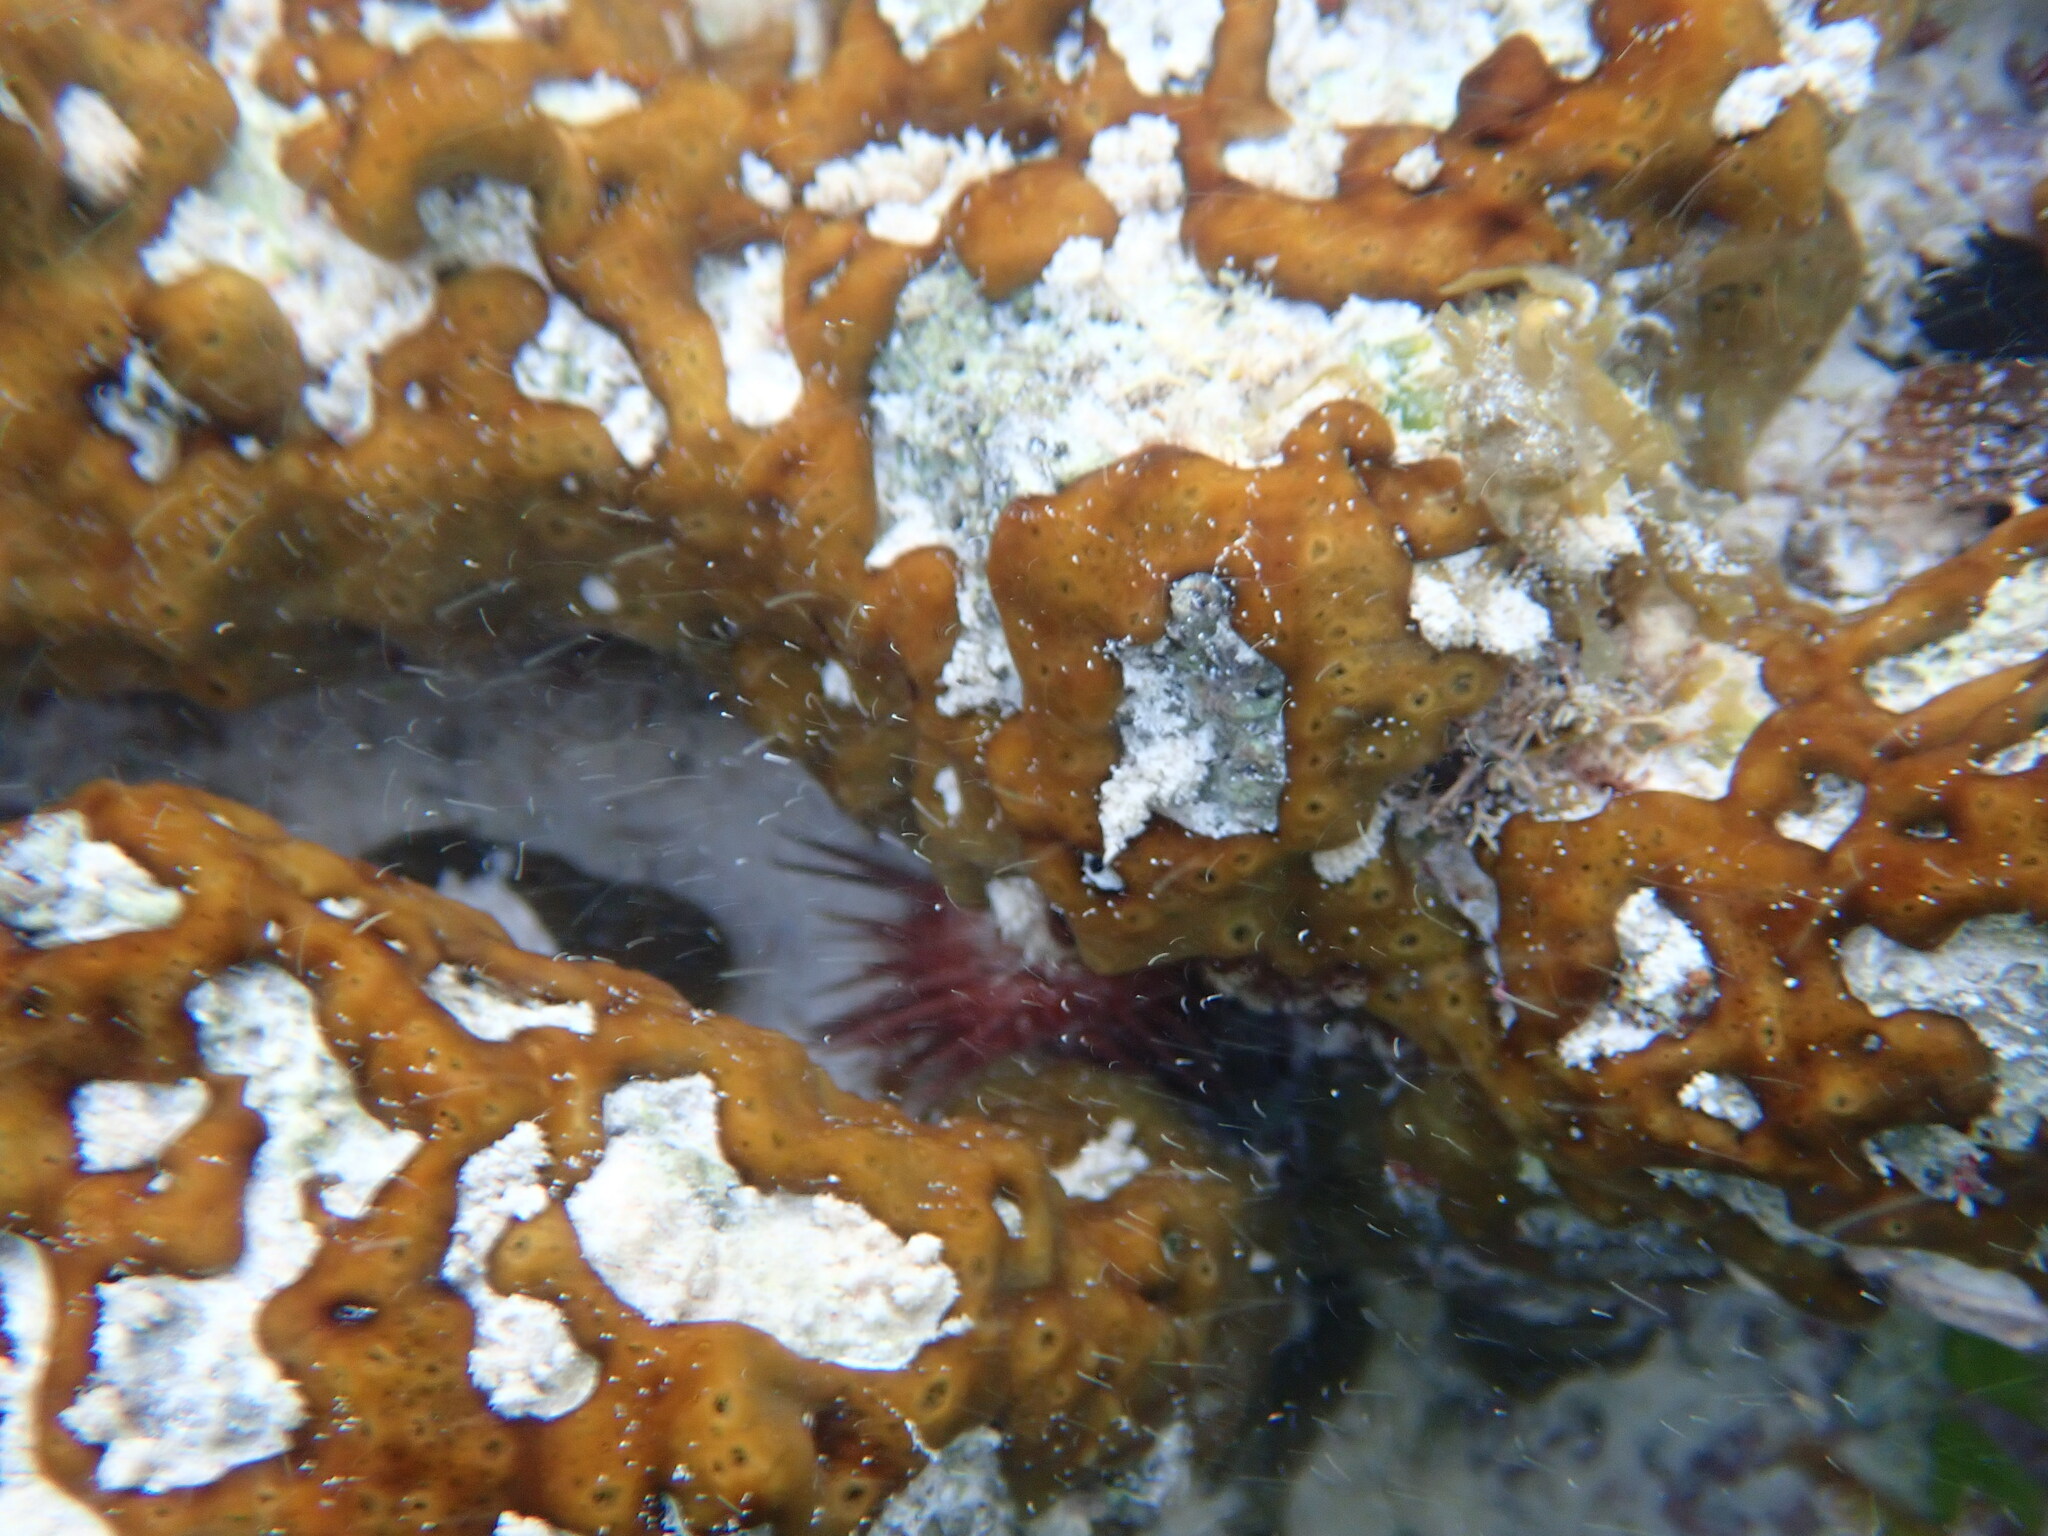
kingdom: Animalia
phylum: Porifera
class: Demospongiae
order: Chondrillida
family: Chondrillidae
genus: Chondrilla
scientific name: Chondrilla nucula
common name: Chicken liver sponge
